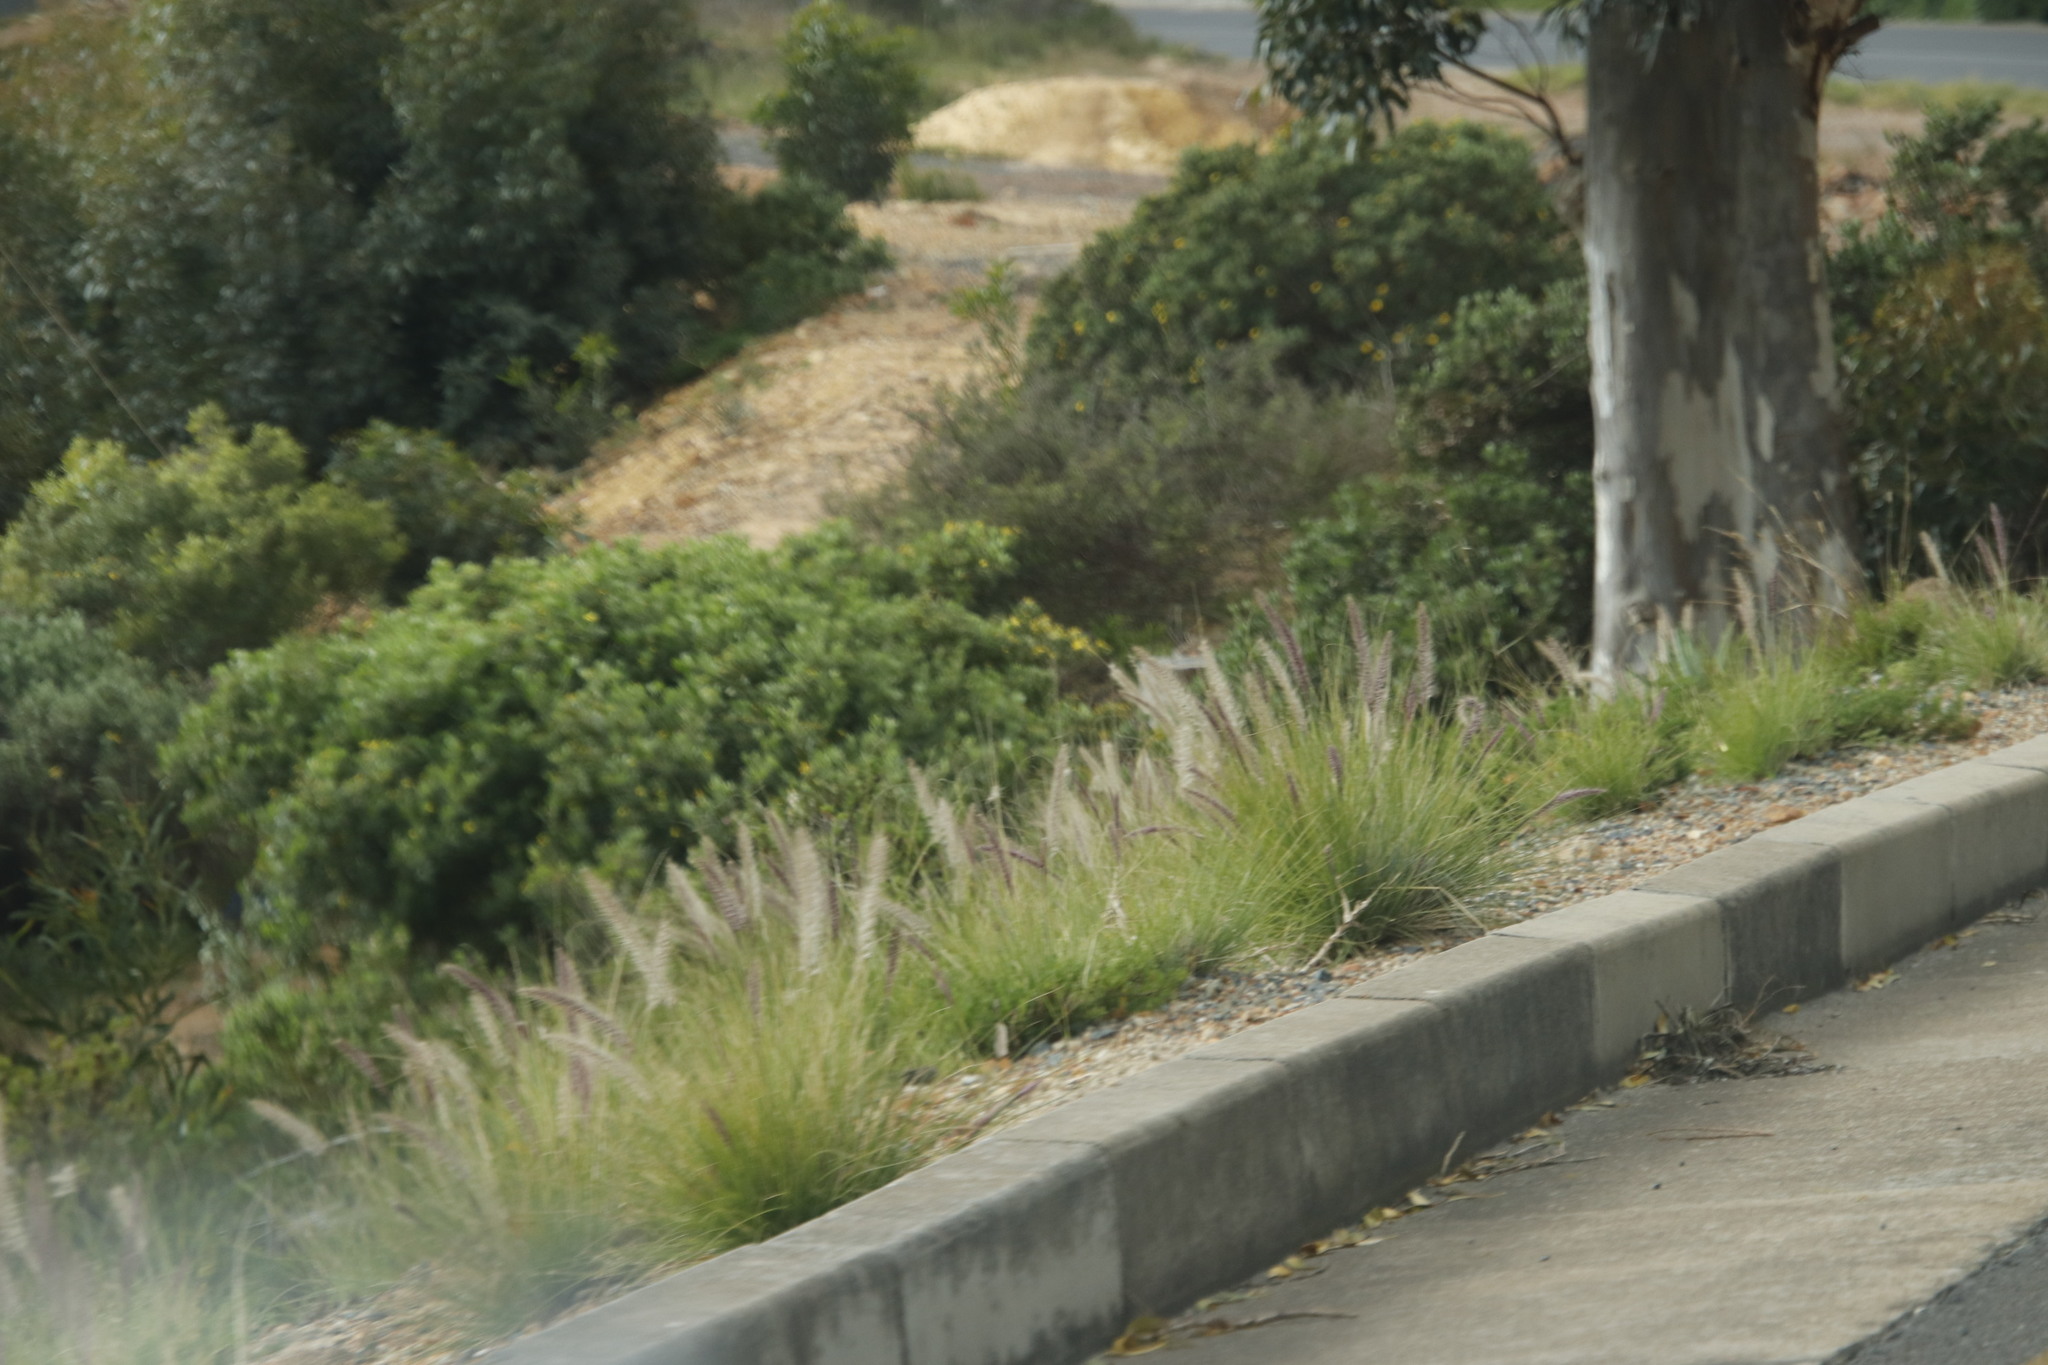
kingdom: Plantae
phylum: Tracheophyta
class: Liliopsida
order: Poales
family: Poaceae
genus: Cenchrus
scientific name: Cenchrus setaceus
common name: Crimson fountaingrass
